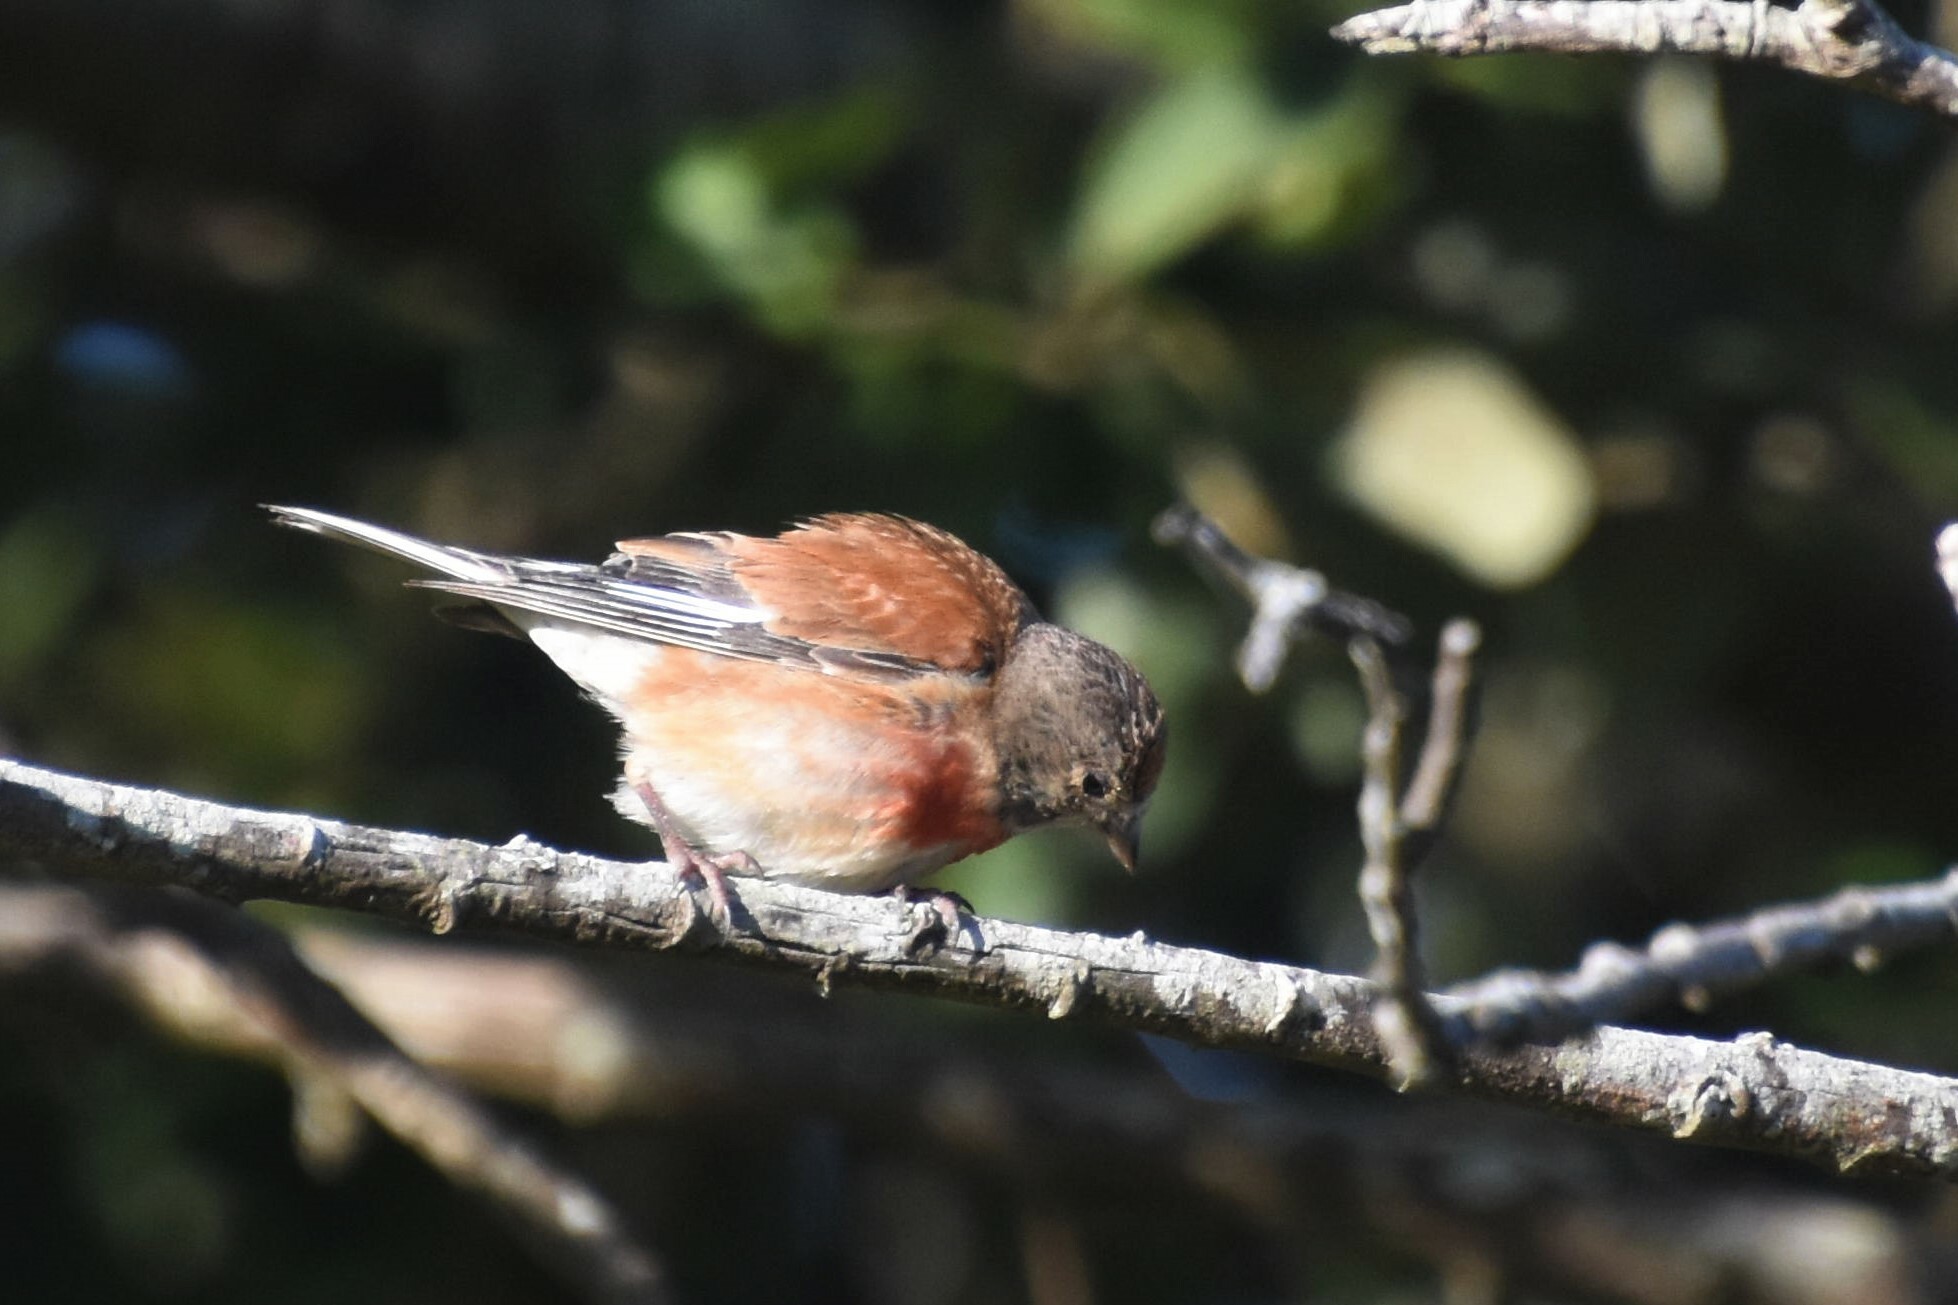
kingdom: Animalia
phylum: Chordata
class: Aves
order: Passeriformes
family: Fringillidae
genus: Linaria
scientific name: Linaria cannabina
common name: Common linnet
